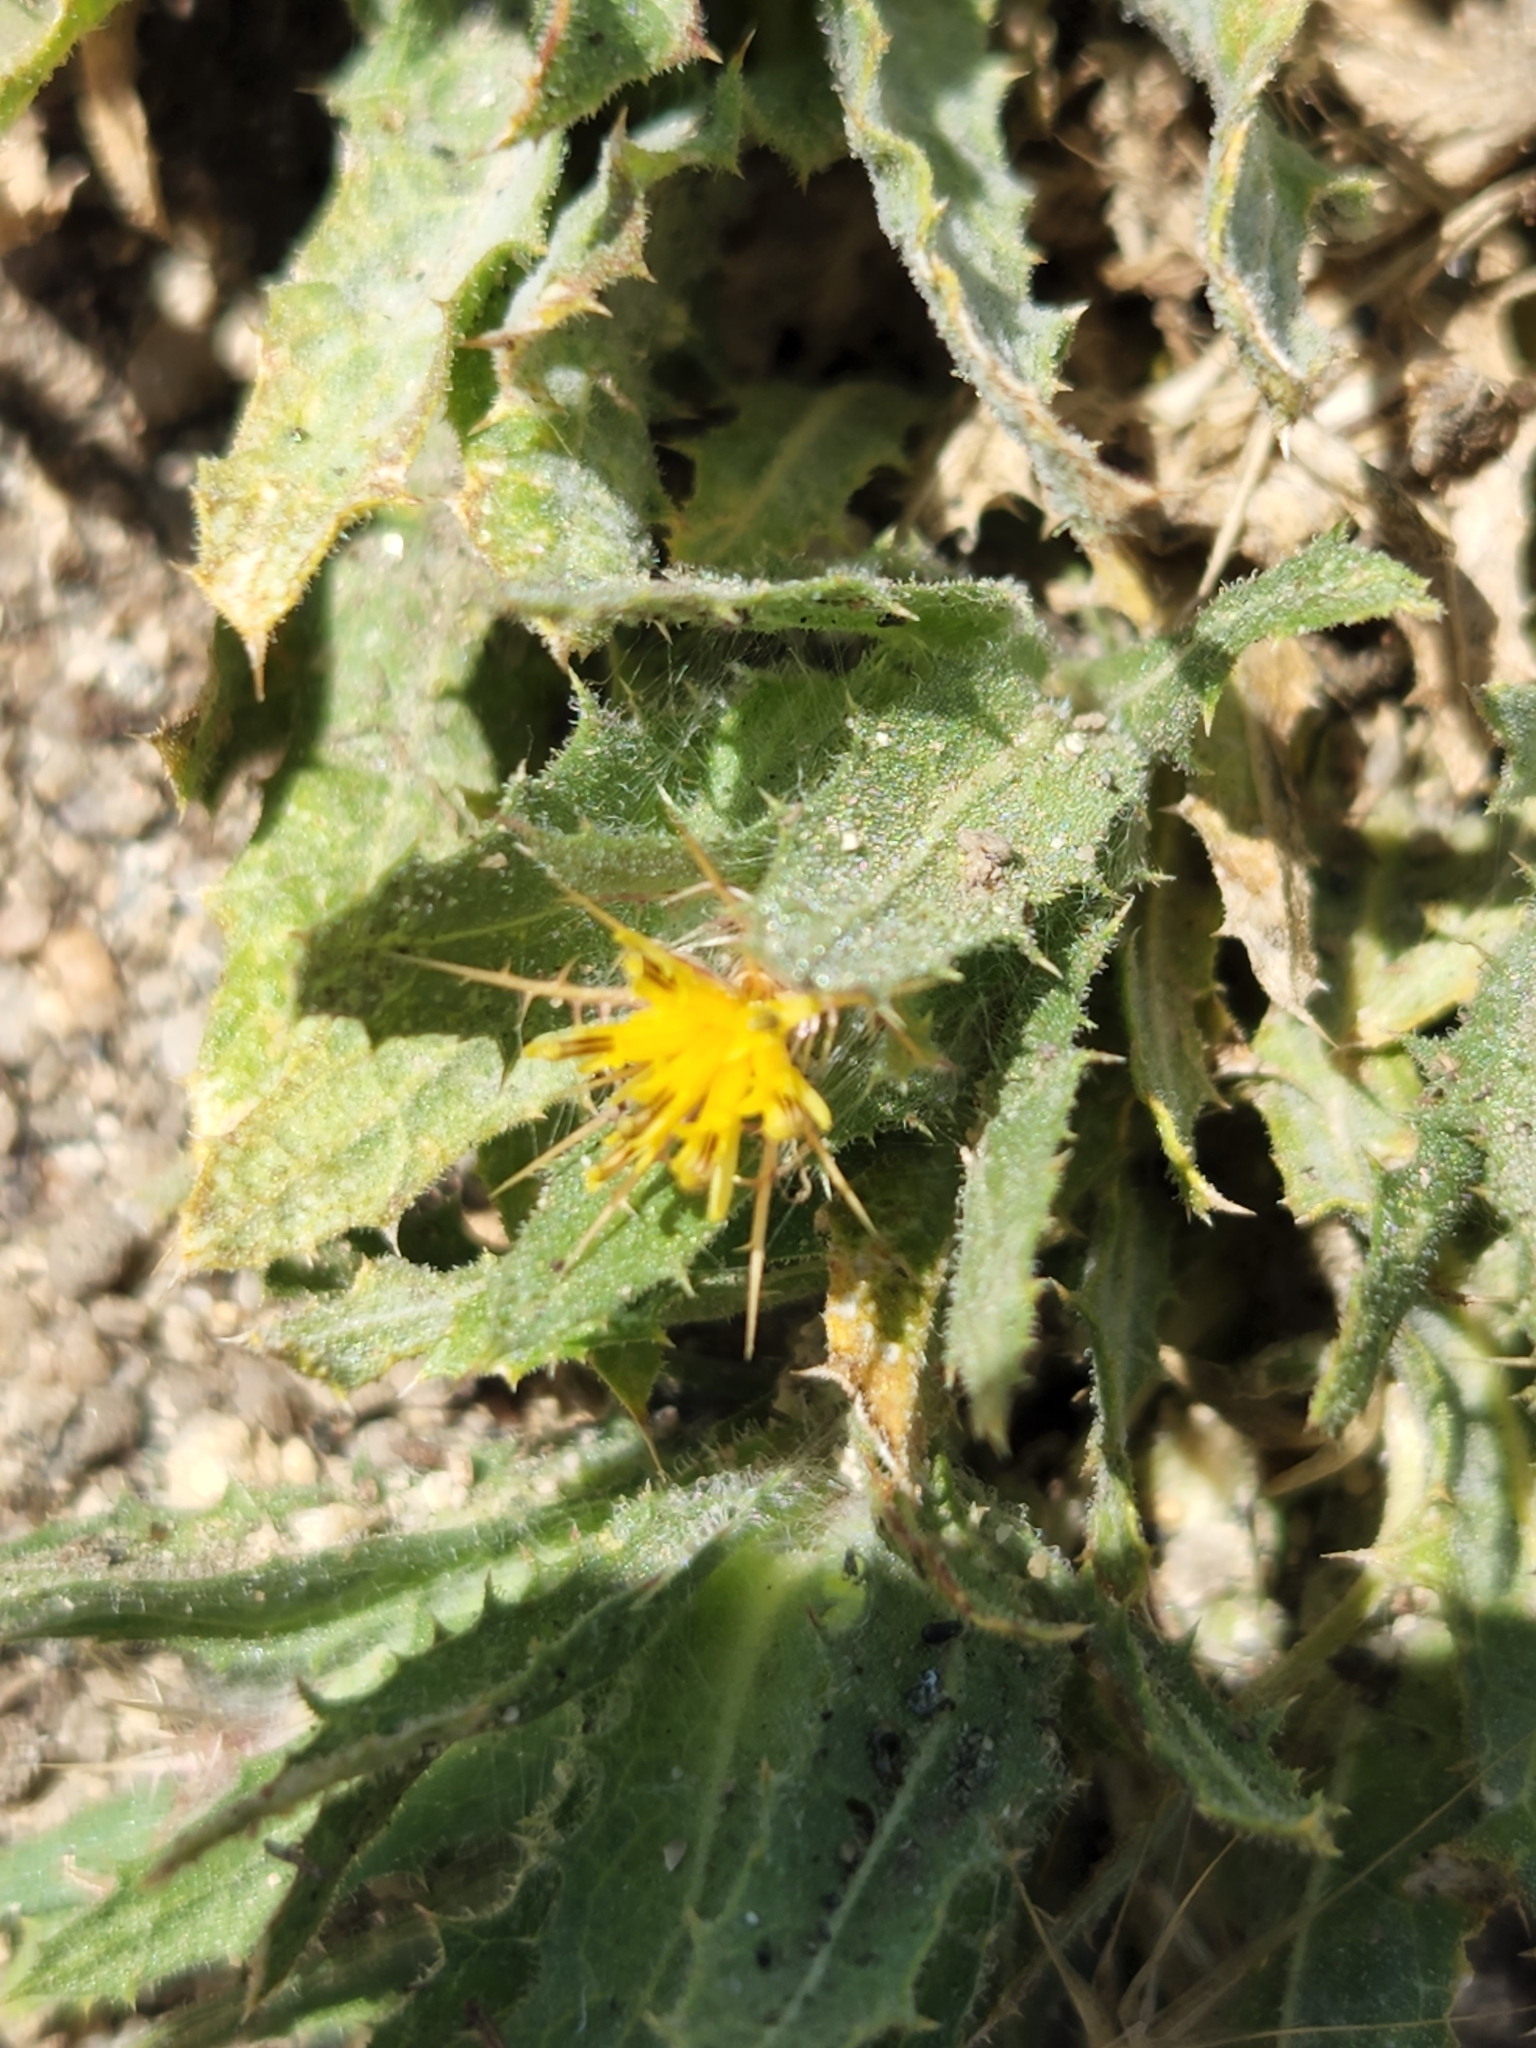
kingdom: Plantae
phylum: Tracheophyta
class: Magnoliopsida
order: Asterales
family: Asteraceae
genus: Centaurea
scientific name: Centaurea benedicta
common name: Blessed thistle
